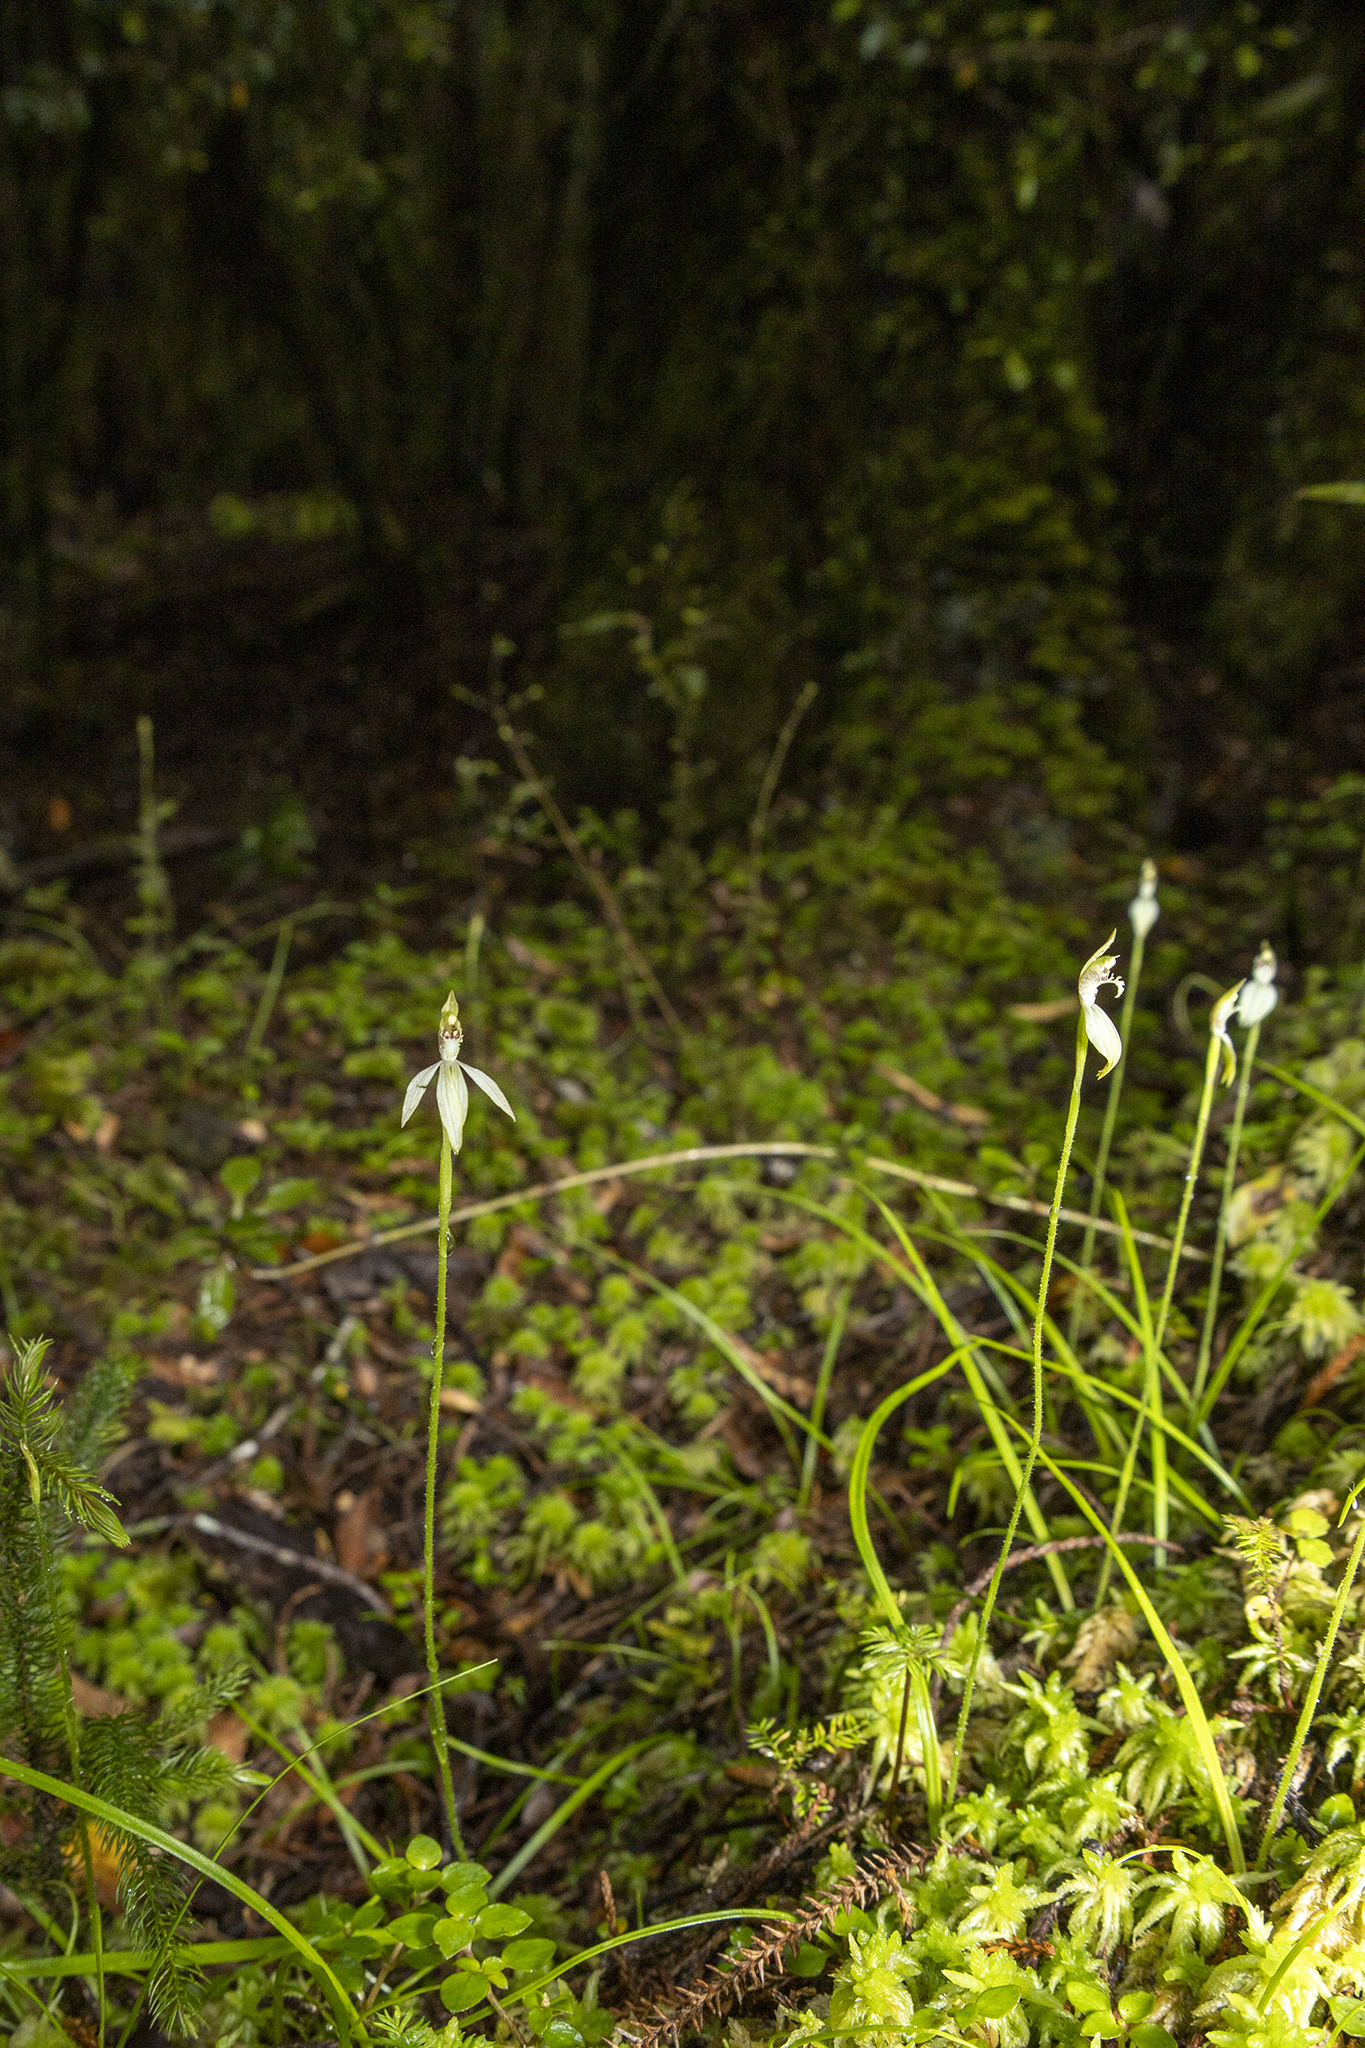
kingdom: Plantae
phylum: Tracheophyta
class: Liliopsida
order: Asparagales
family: Orchidaceae
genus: Caladenia
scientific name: Caladenia chlorostyla
